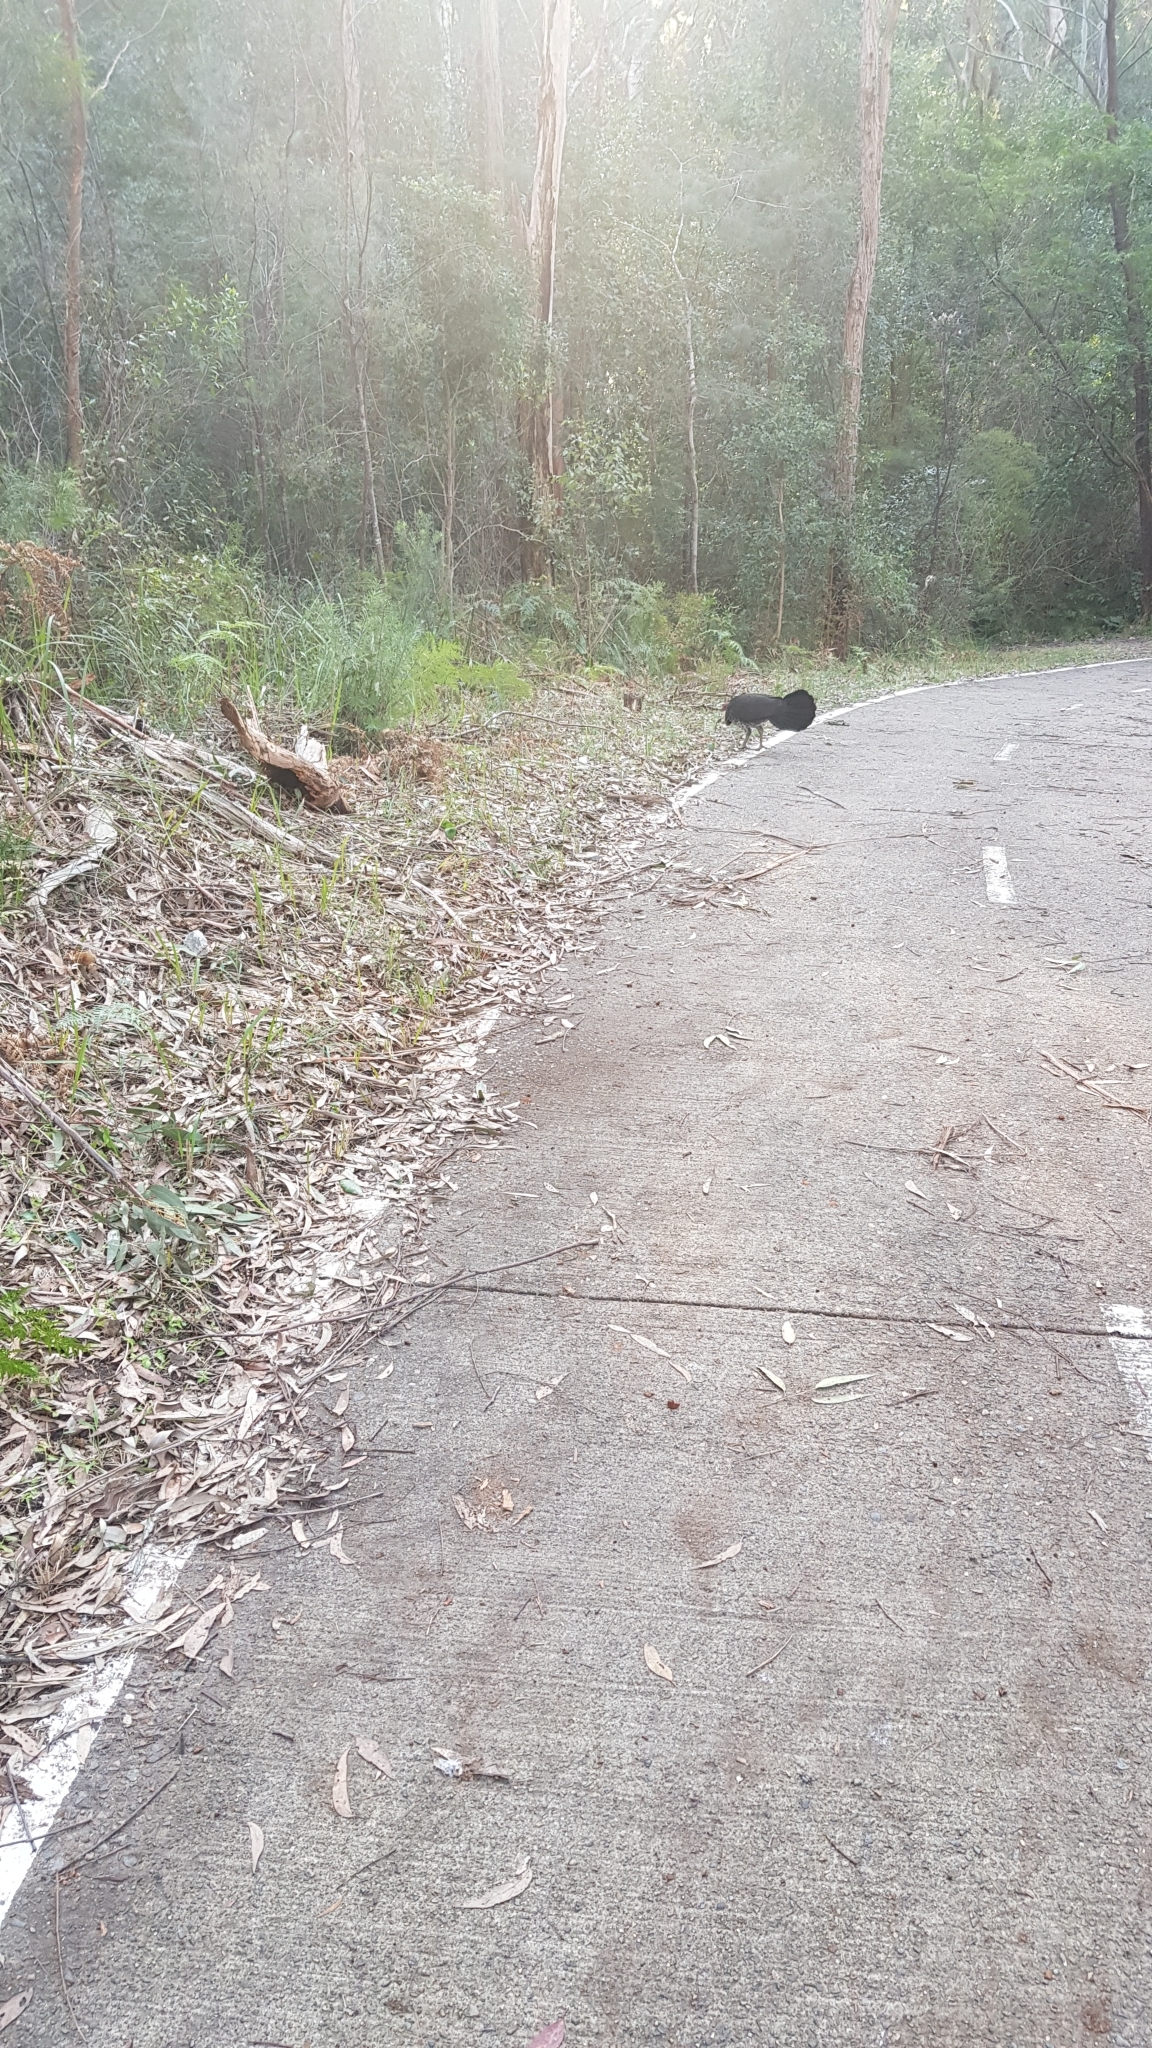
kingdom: Animalia
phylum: Chordata
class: Aves
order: Galliformes
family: Megapodiidae
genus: Alectura
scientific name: Alectura lathami
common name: Australian brushturkey
